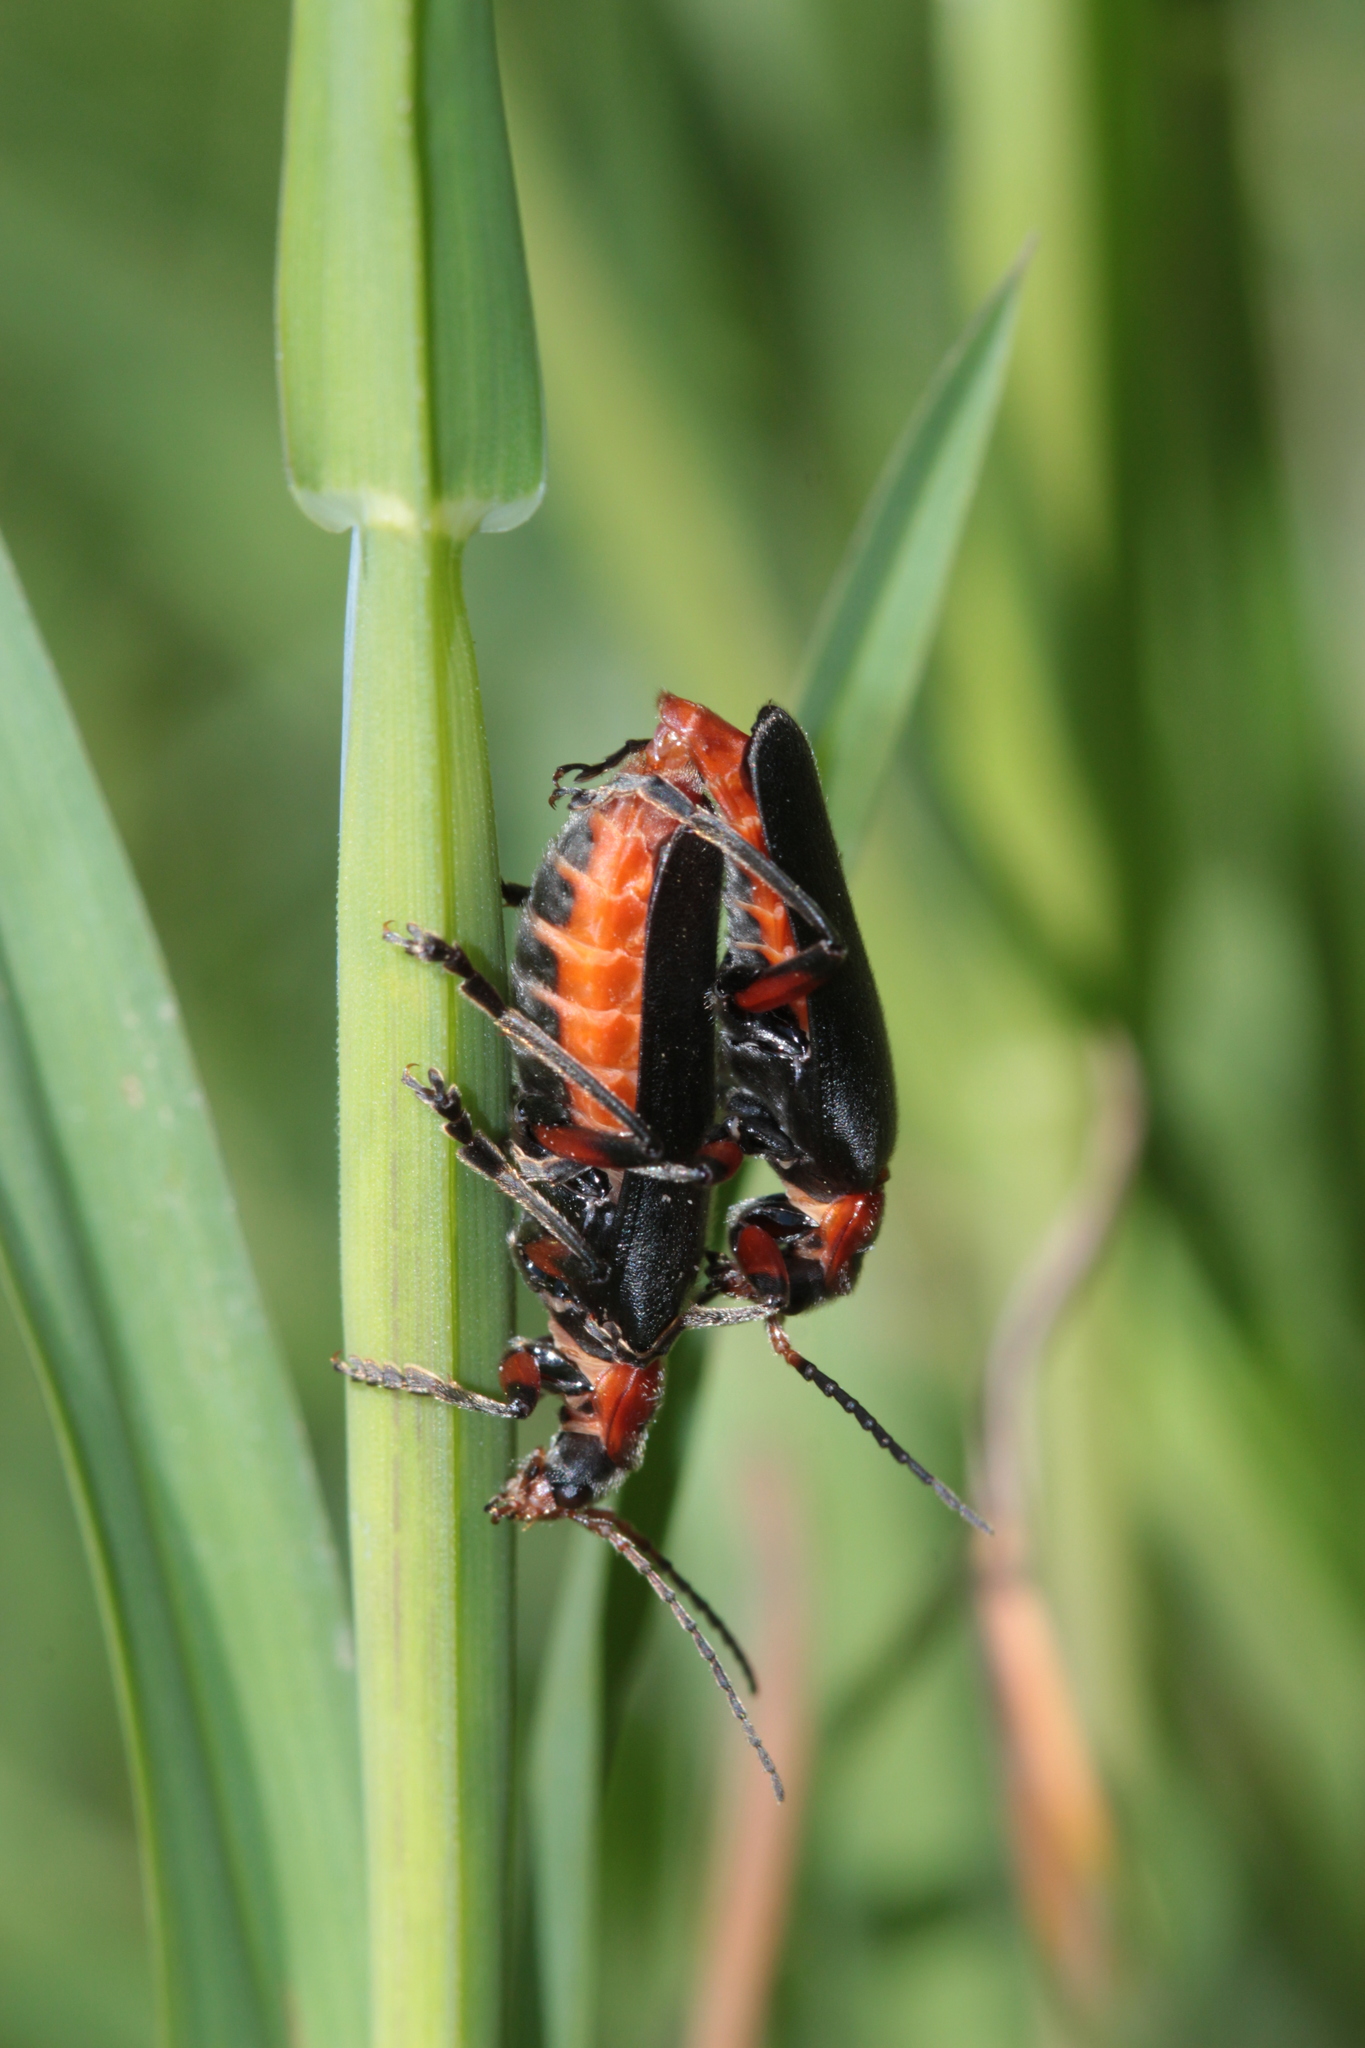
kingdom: Animalia
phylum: Arthropoda
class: Insecta
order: Coleoptera
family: Cantharidae
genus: Cantharis
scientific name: Cantharis rustica
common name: Soldier beetle
